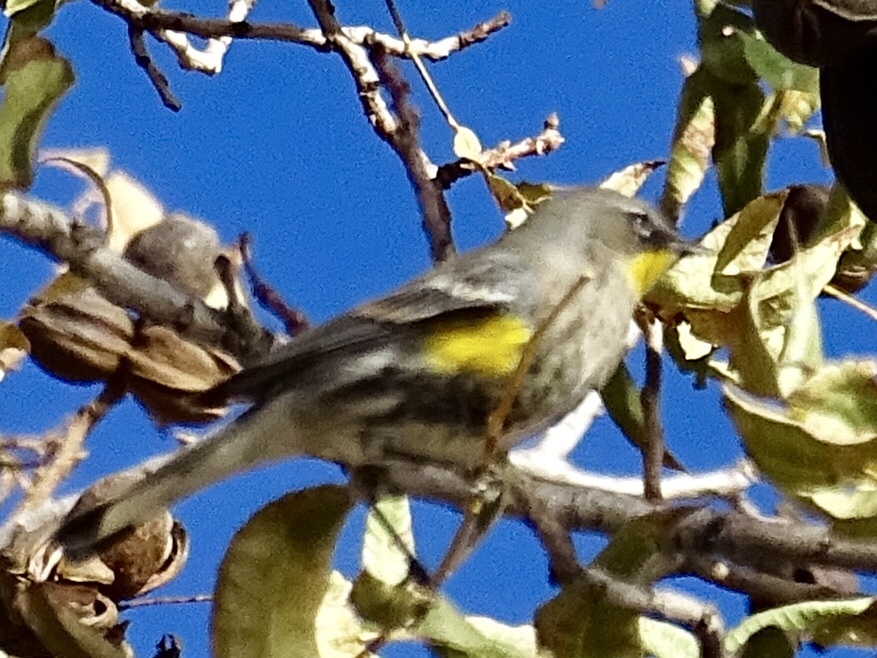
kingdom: Animalia
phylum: Chordata
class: Aves
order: Passeriformes
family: Parulidae
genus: Setophaga
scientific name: Setophaga
